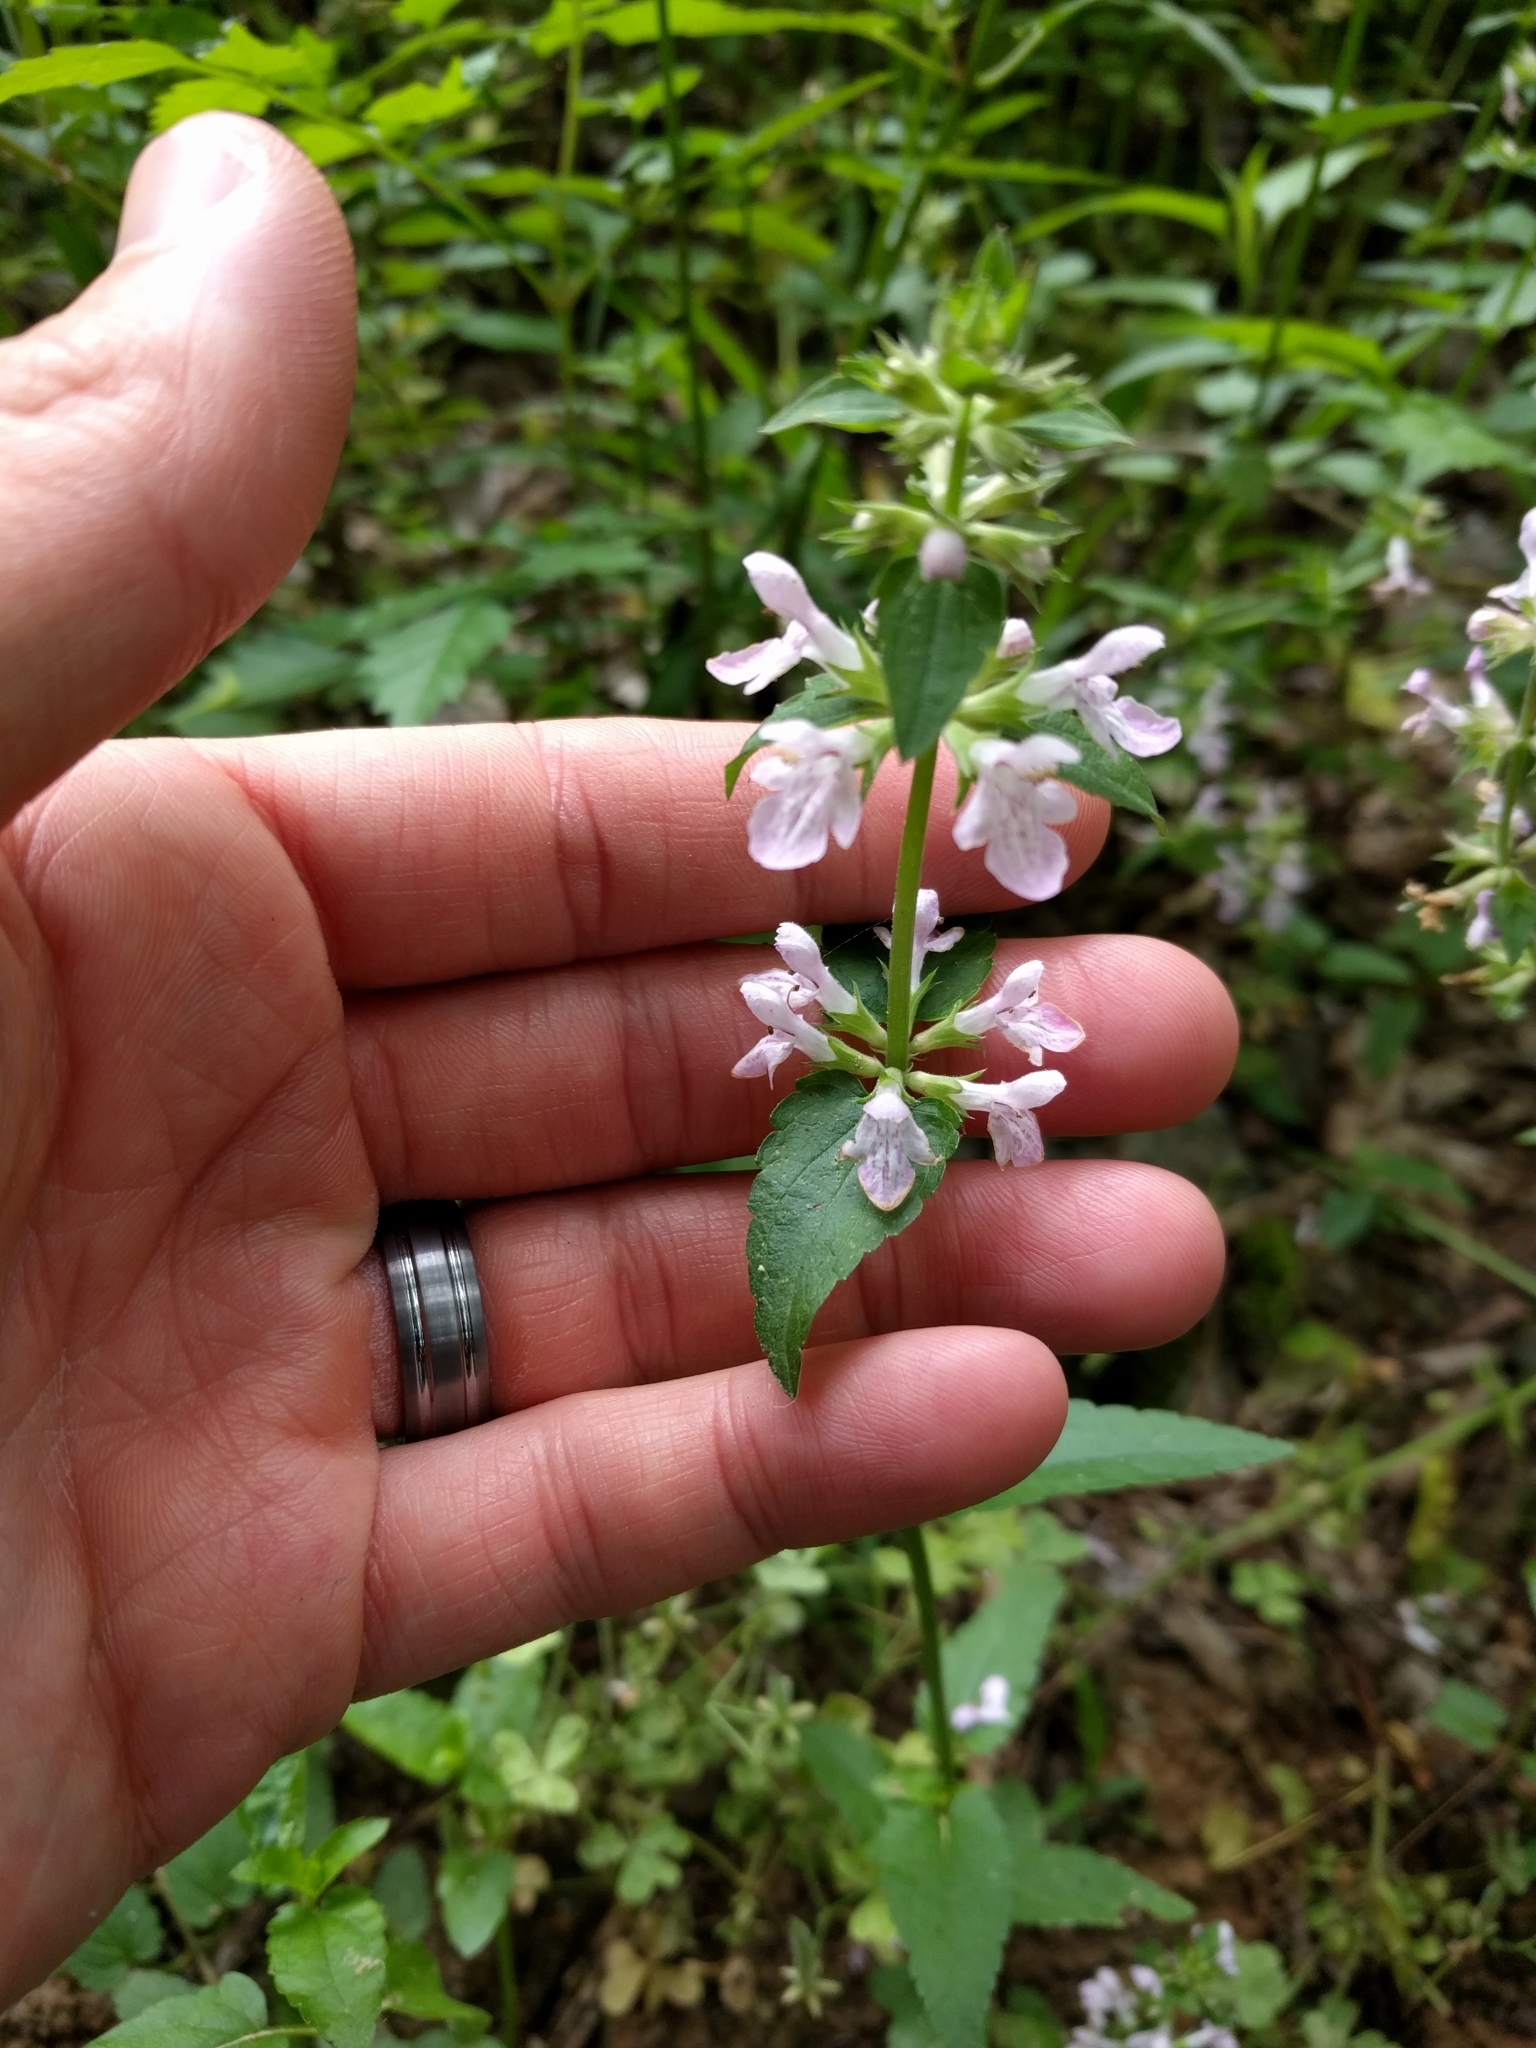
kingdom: Plantae
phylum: Tracheophyta
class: Magnoliopsida
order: Lamiales
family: Lamiaceae
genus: Stachys
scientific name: Stachys floridana
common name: Florida betony
